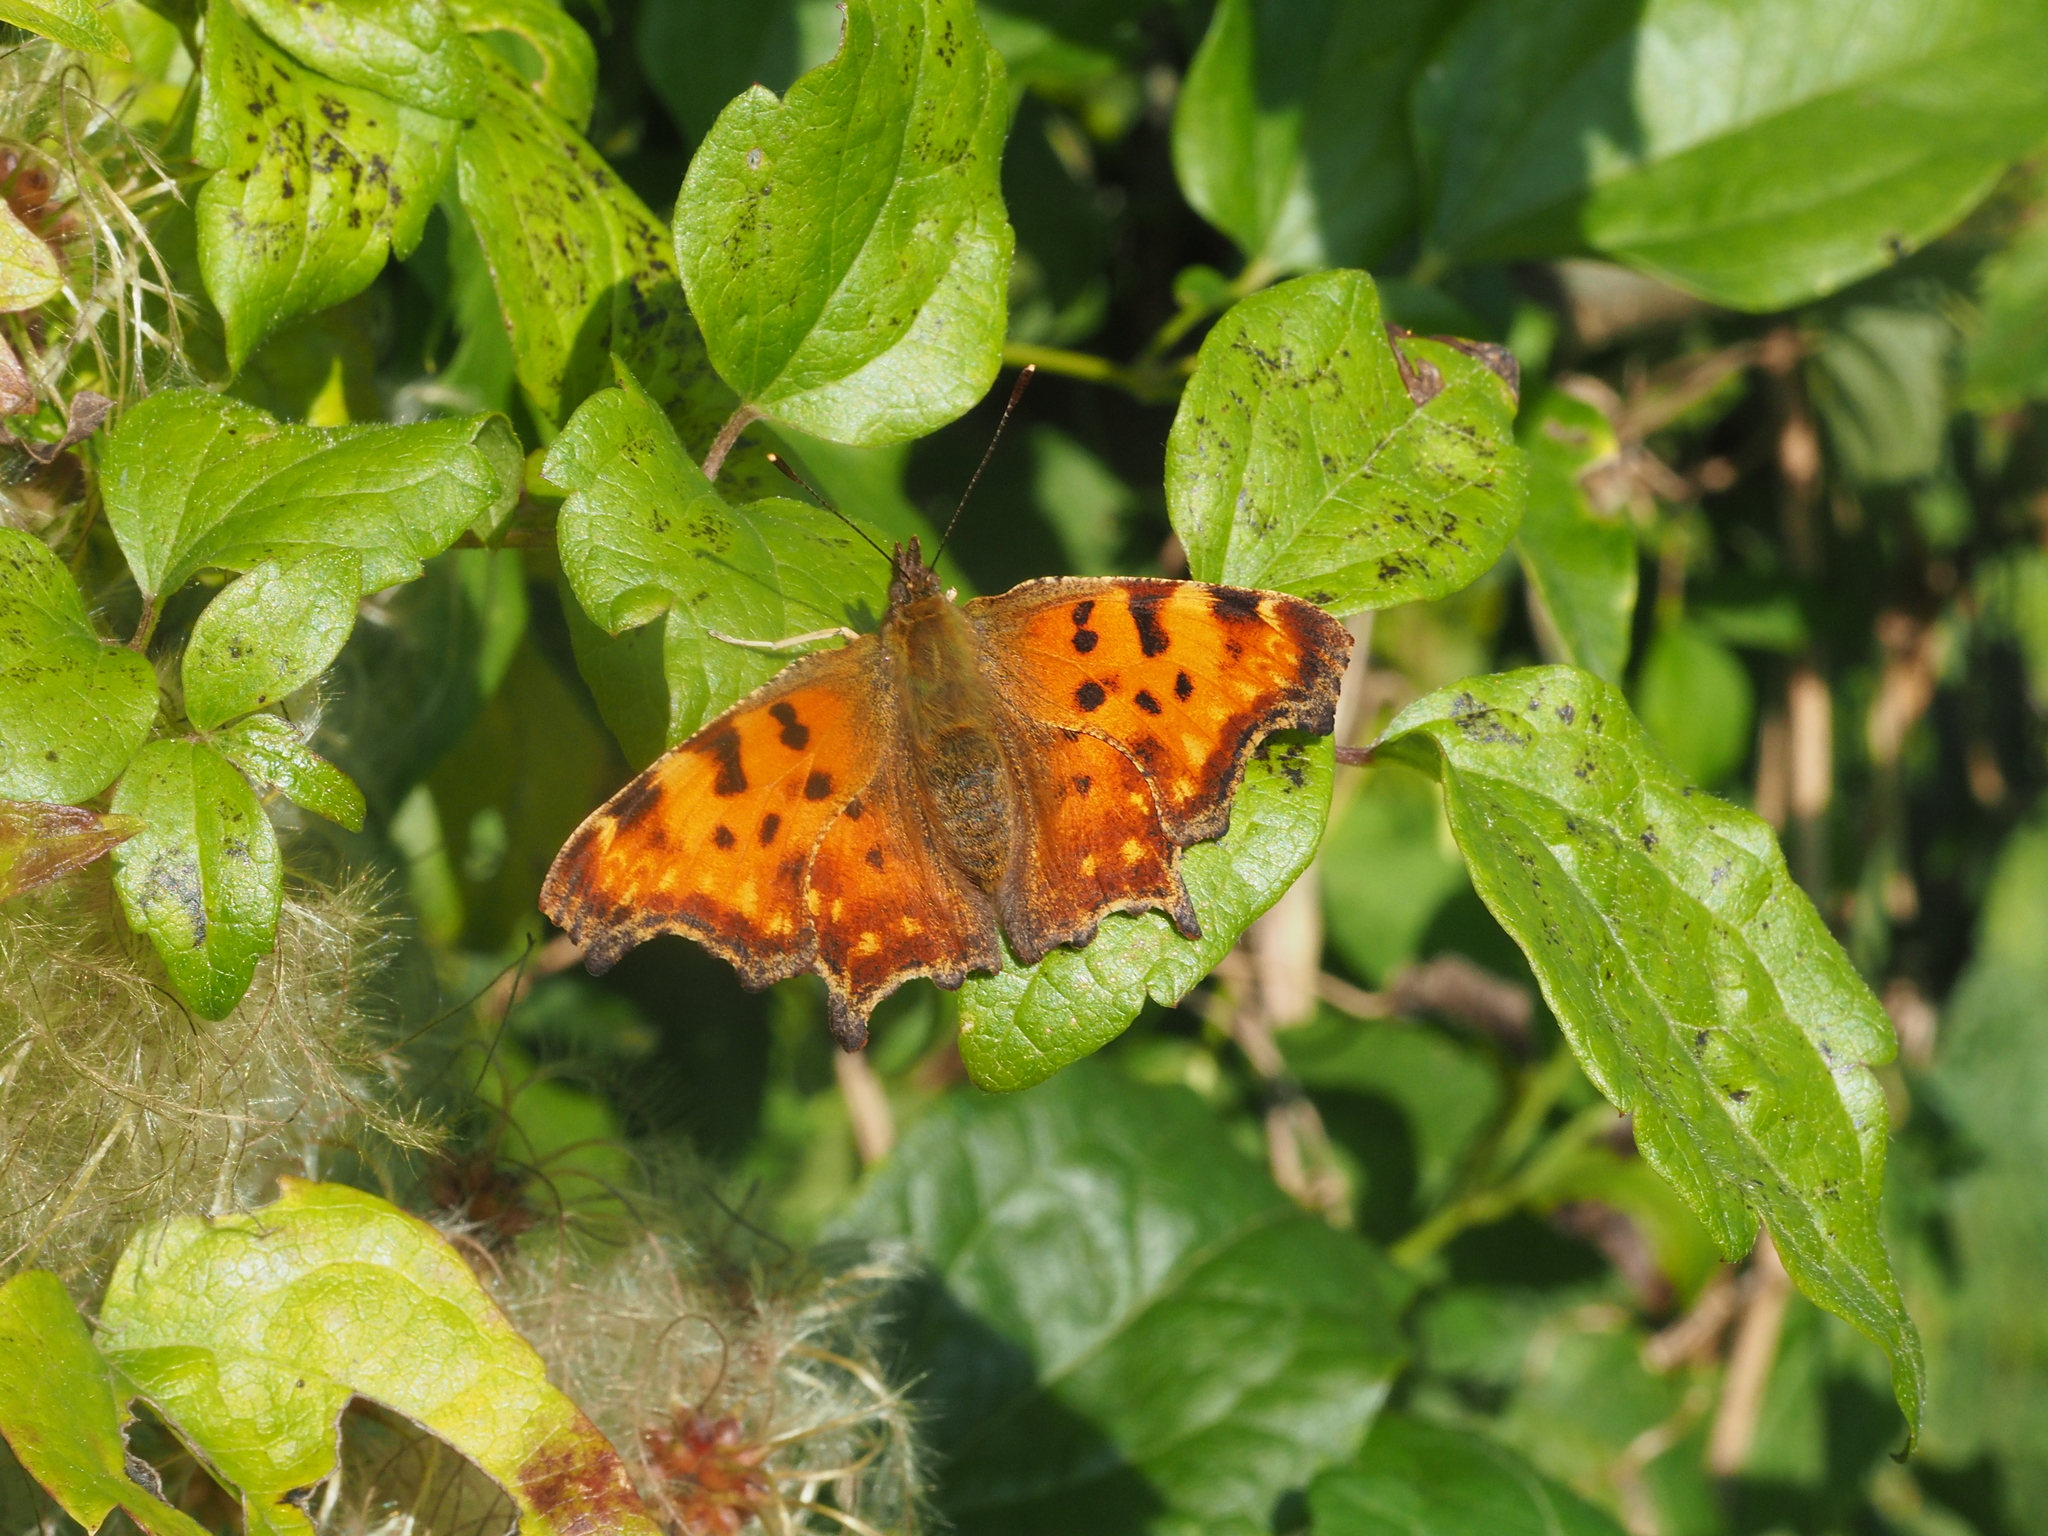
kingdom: Animalia
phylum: Arthropoda
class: Insecta
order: Lepidoptera
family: Nymphalidae
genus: Polygonia
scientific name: Polygonia c-album
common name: Comma
